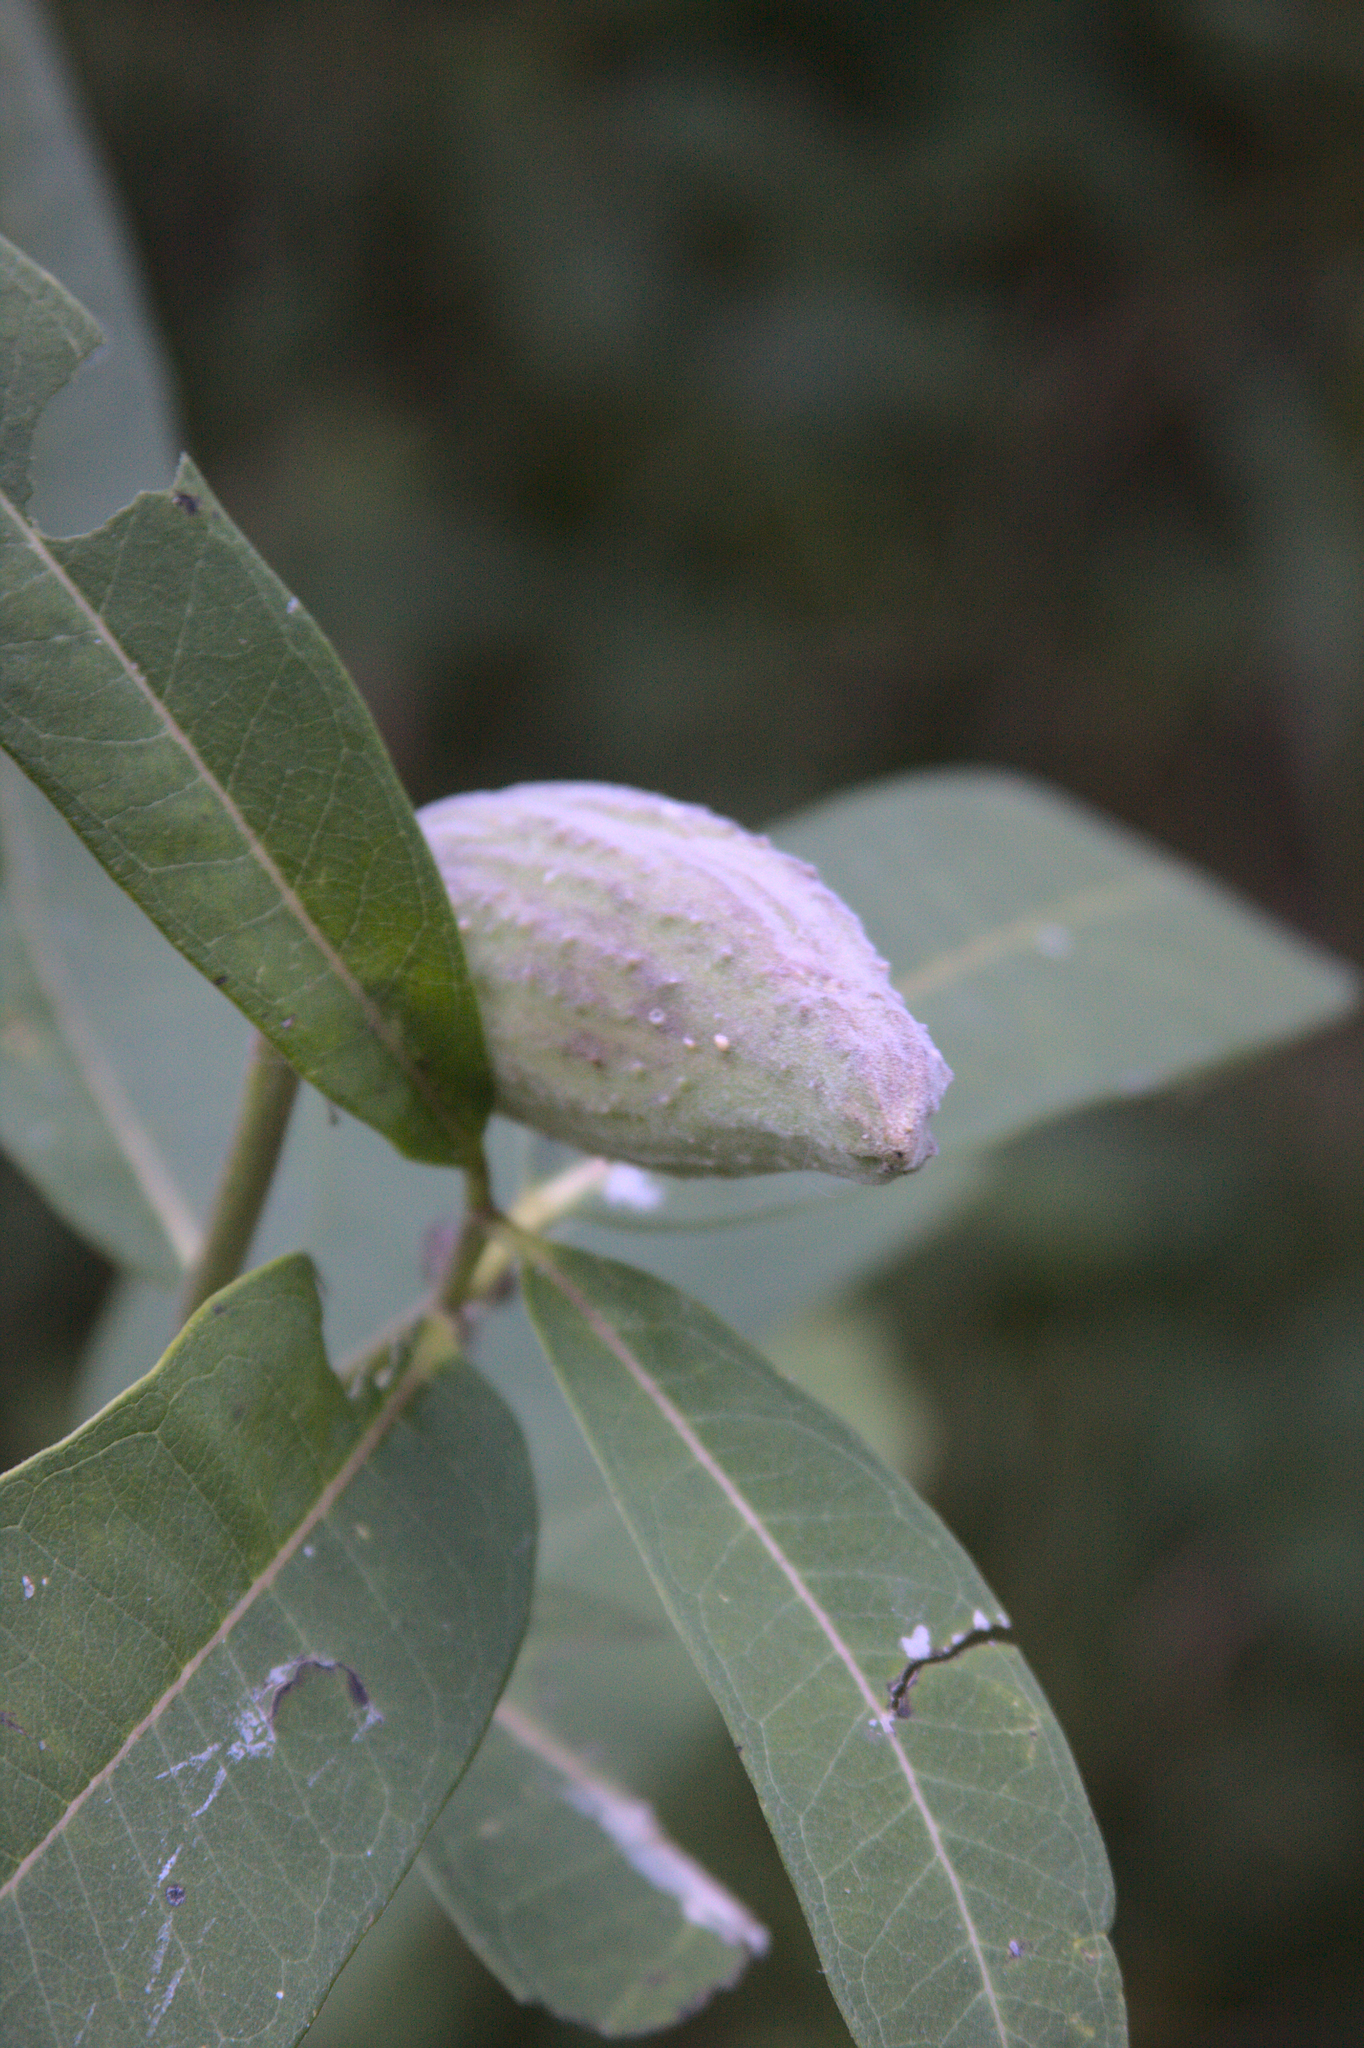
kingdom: Plantae
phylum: Tracheophyta
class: Magnoliopsida
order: Gentianales
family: Apocynaceae
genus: Asclepias
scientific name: Asclepias syriaca
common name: Common milkweed
